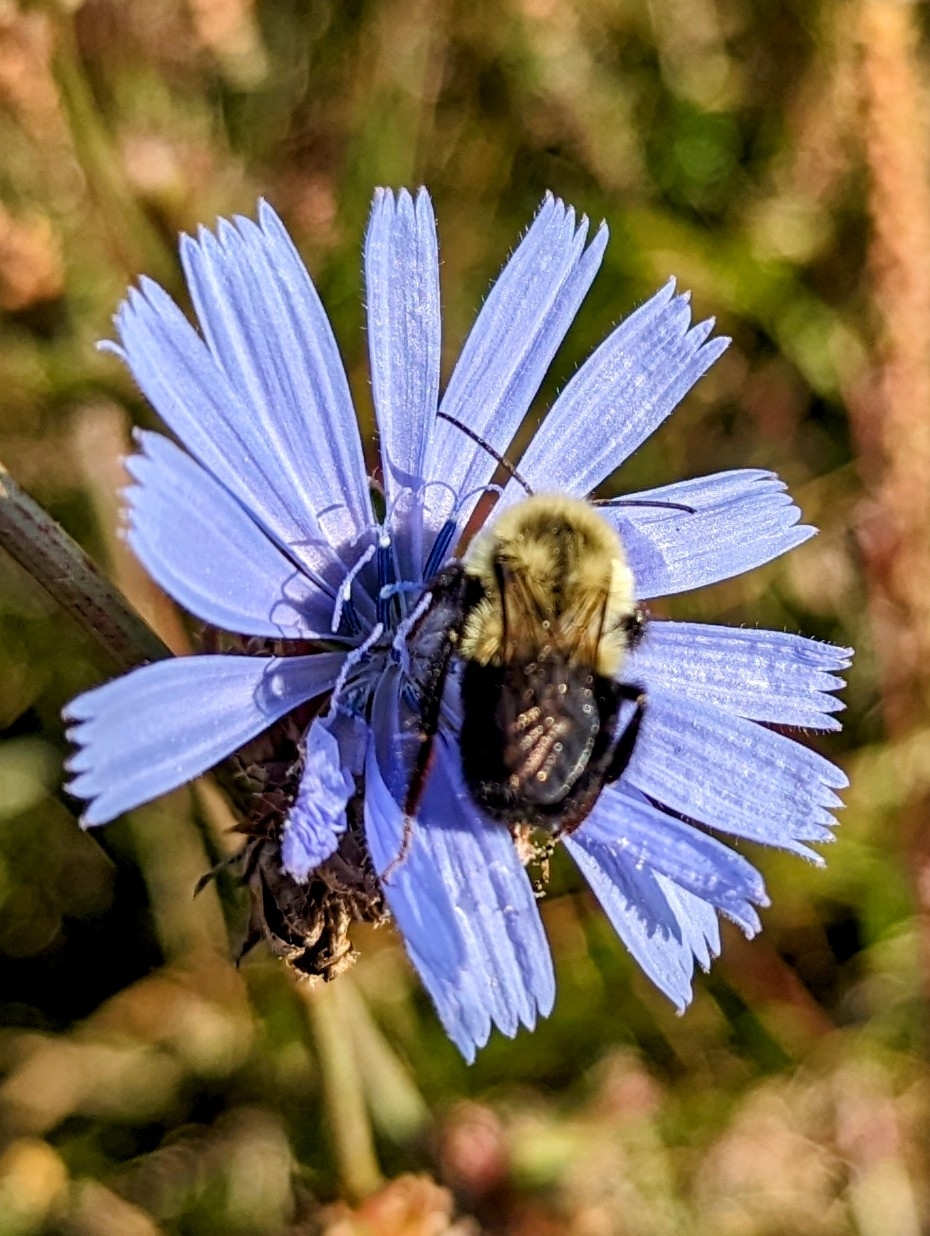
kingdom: Animalia
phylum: Arthropoda
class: Insecta
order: Hymenoptera
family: Apidae
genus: Bombus
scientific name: Bombus impatiens
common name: Common eastern bumble bee
